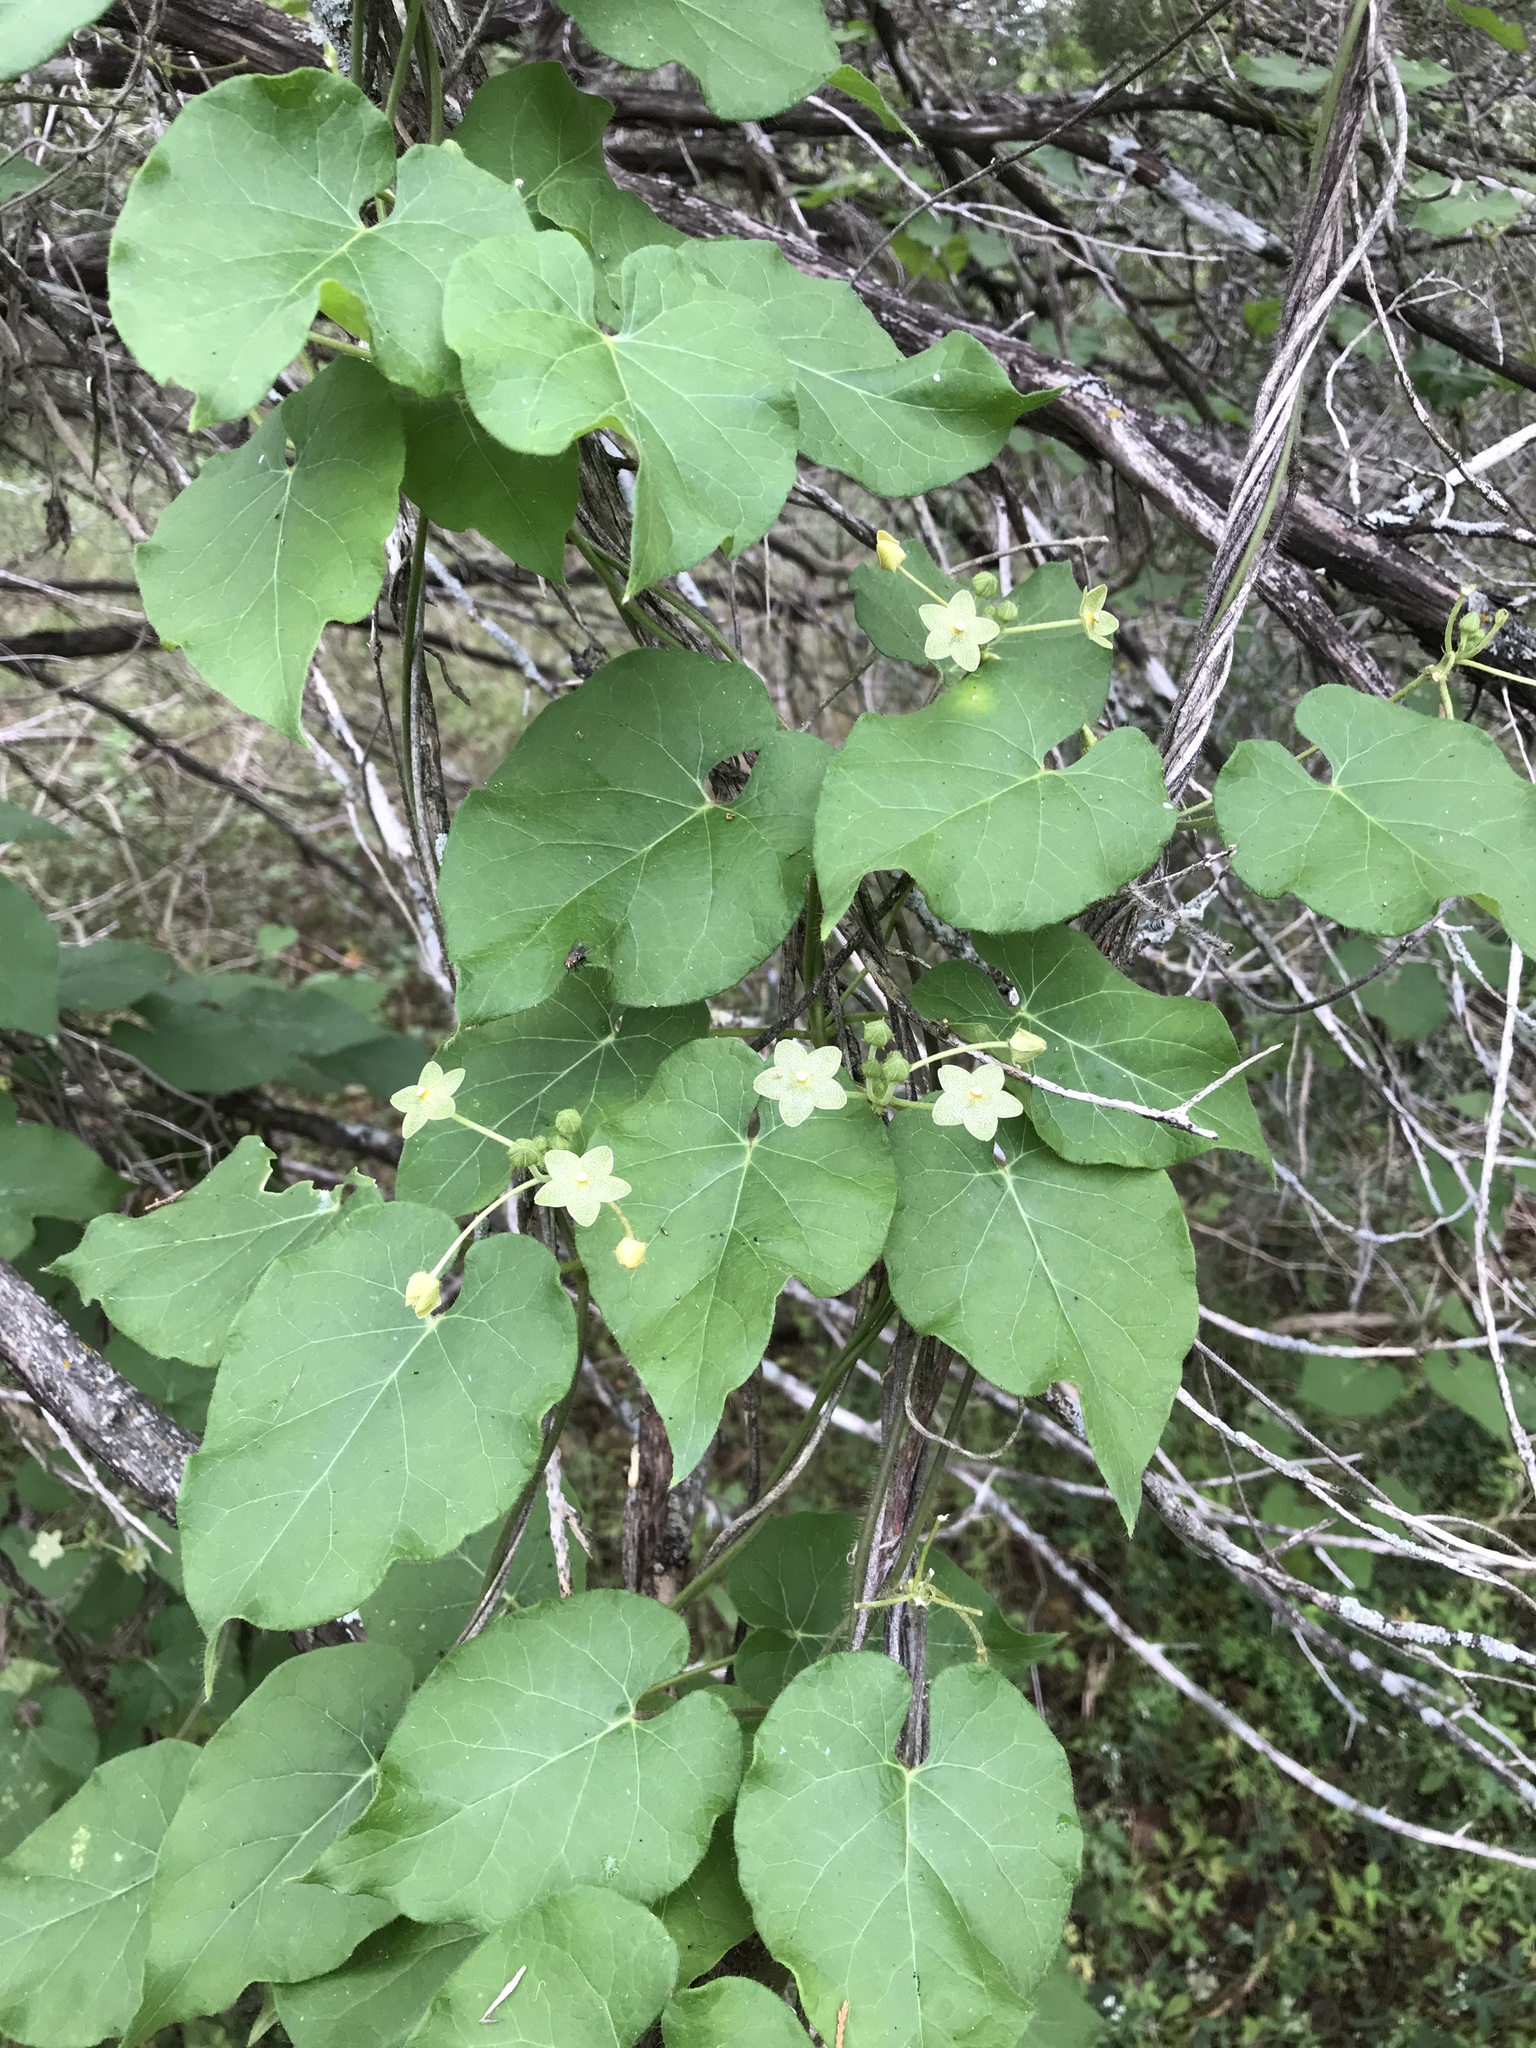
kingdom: Plantae
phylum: Tracheophyta
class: Magnoliopsida
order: Gentianales
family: Apocynaceae
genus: Dictyanthus
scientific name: Dictyanthus reticulatus
